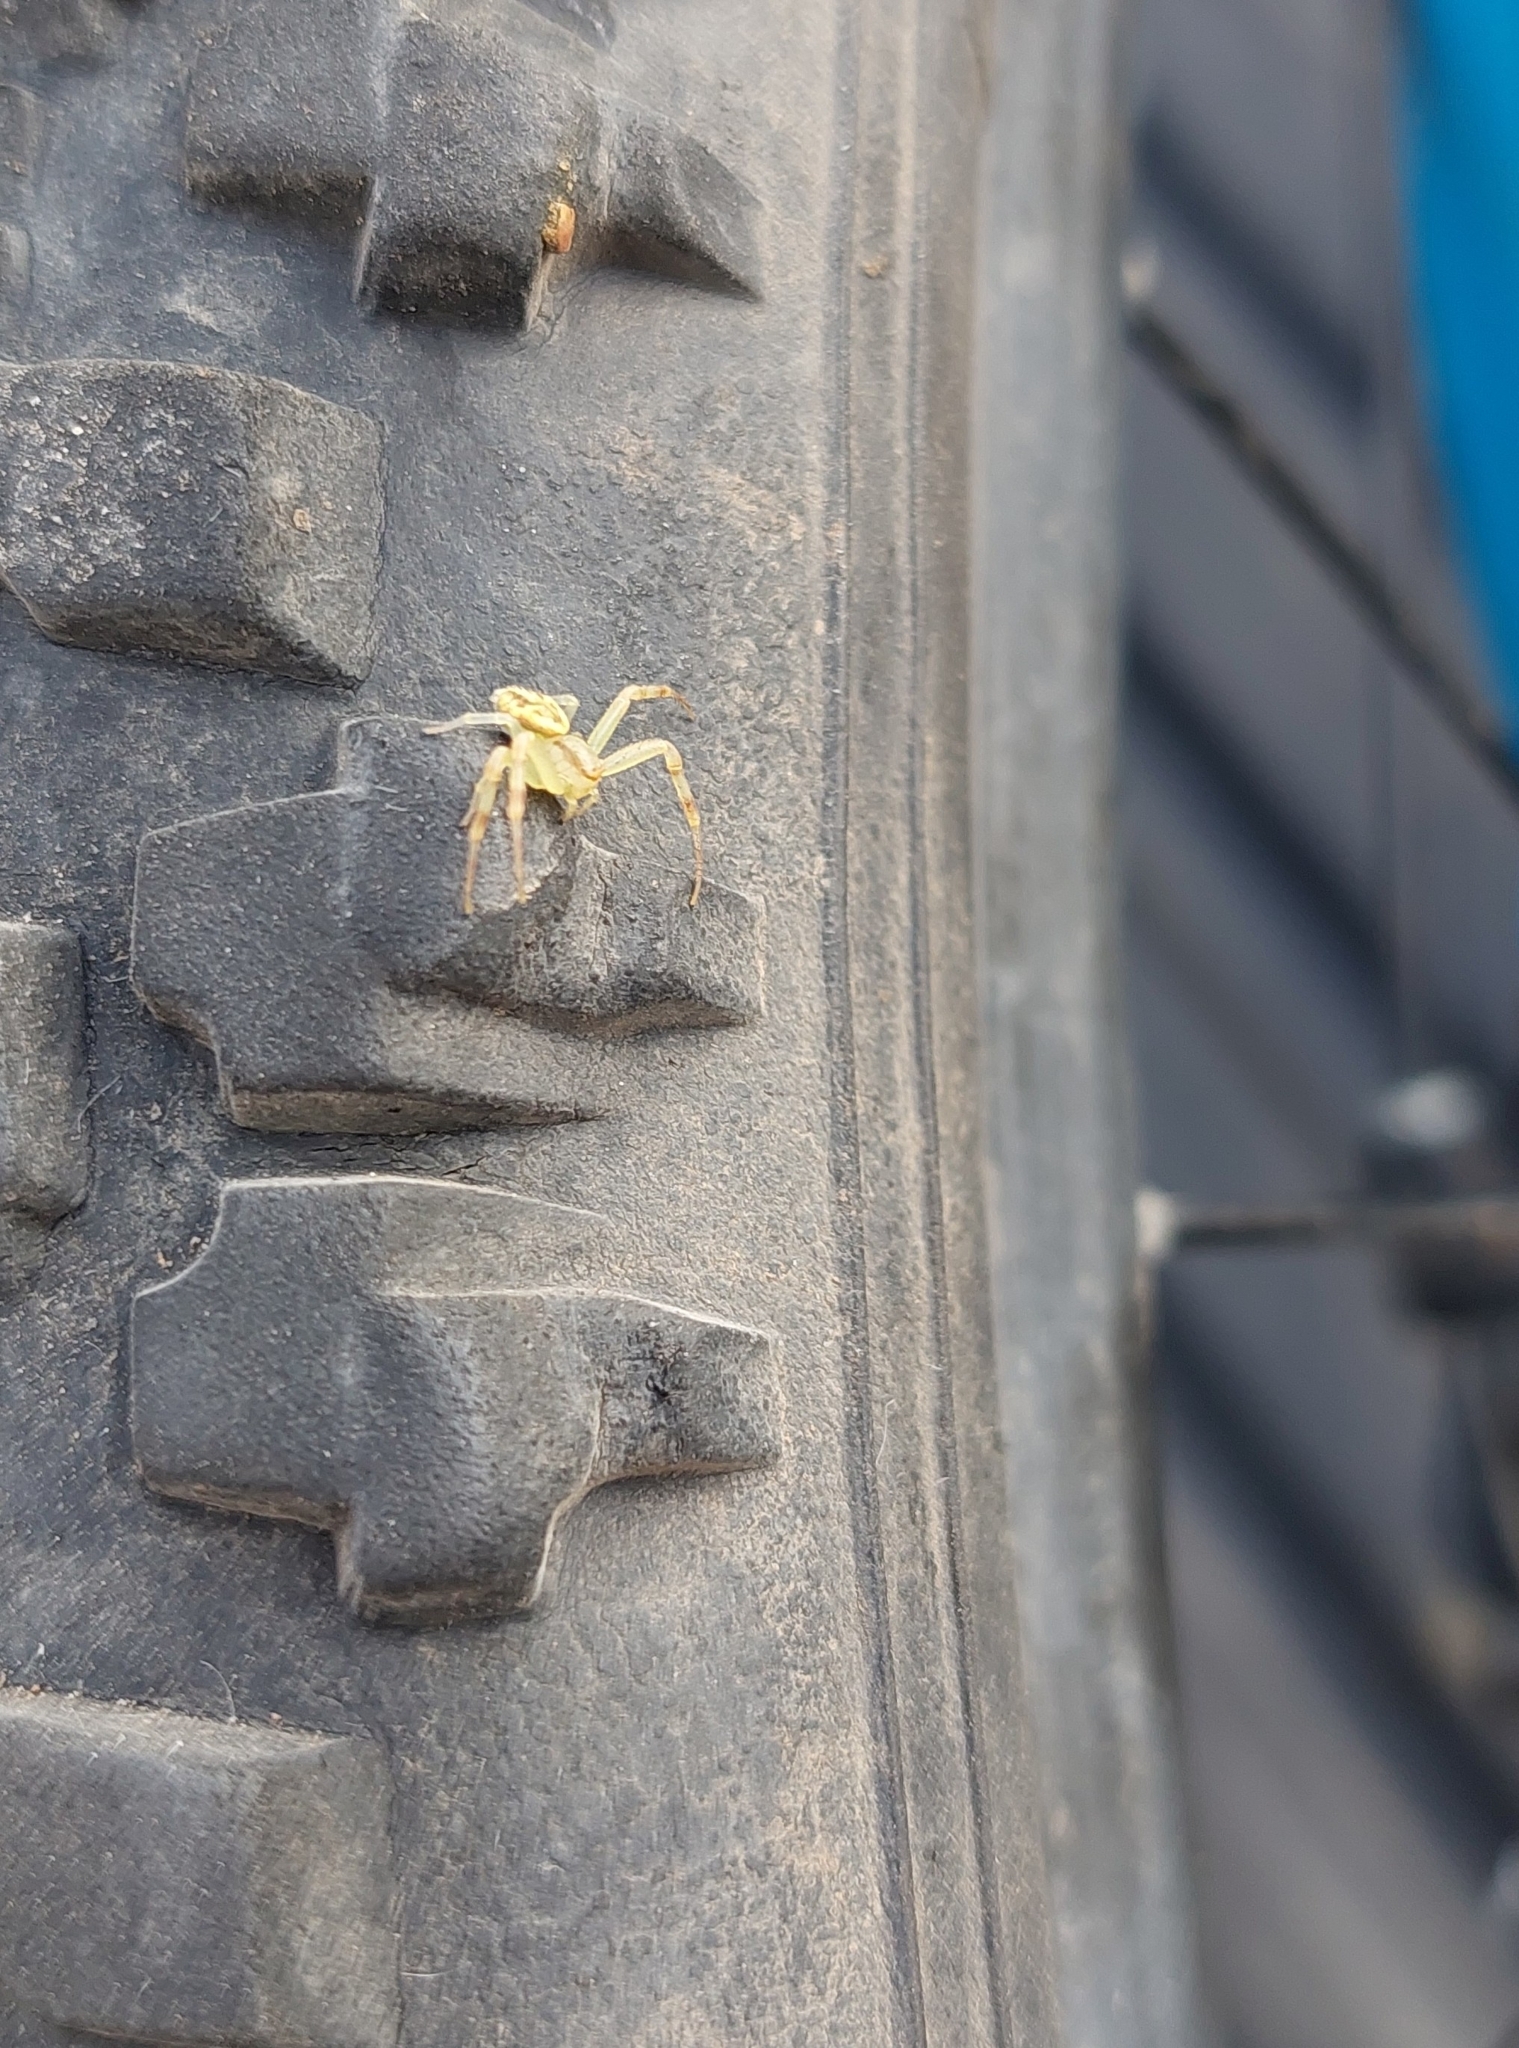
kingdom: Animalia
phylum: Arthropoda
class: Arachnida
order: Araneae
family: Thomisidae
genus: Misumenops
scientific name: Misumenops
